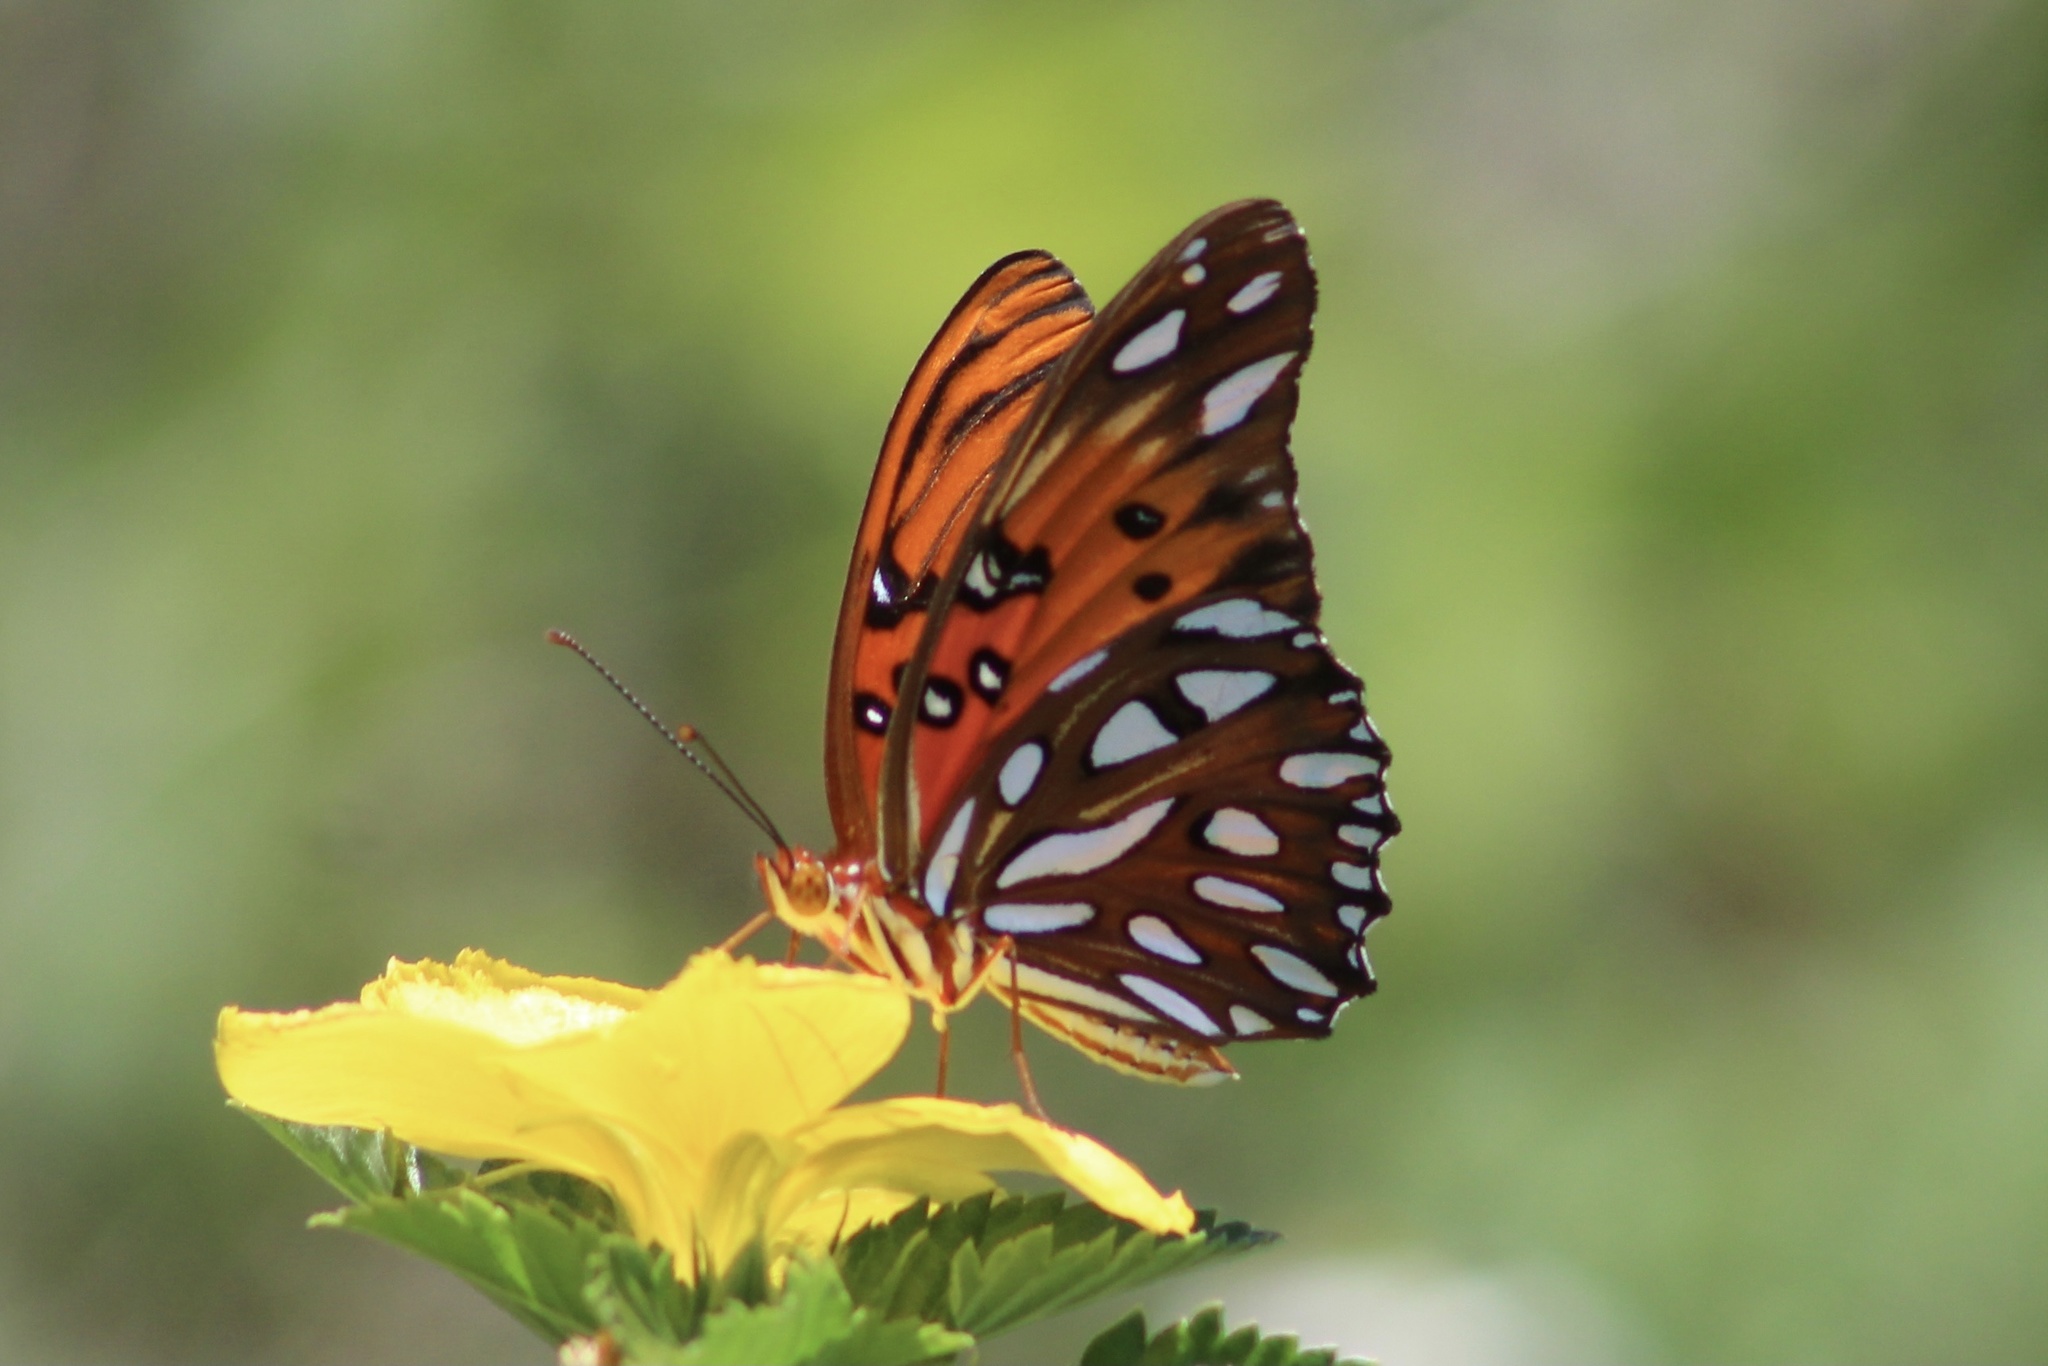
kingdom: Animalia
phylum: Arthropoda
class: Insecta
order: Lepidoptera
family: Nymphalidae
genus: Dione
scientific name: Dione vanillae
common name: Gulf fritillary
